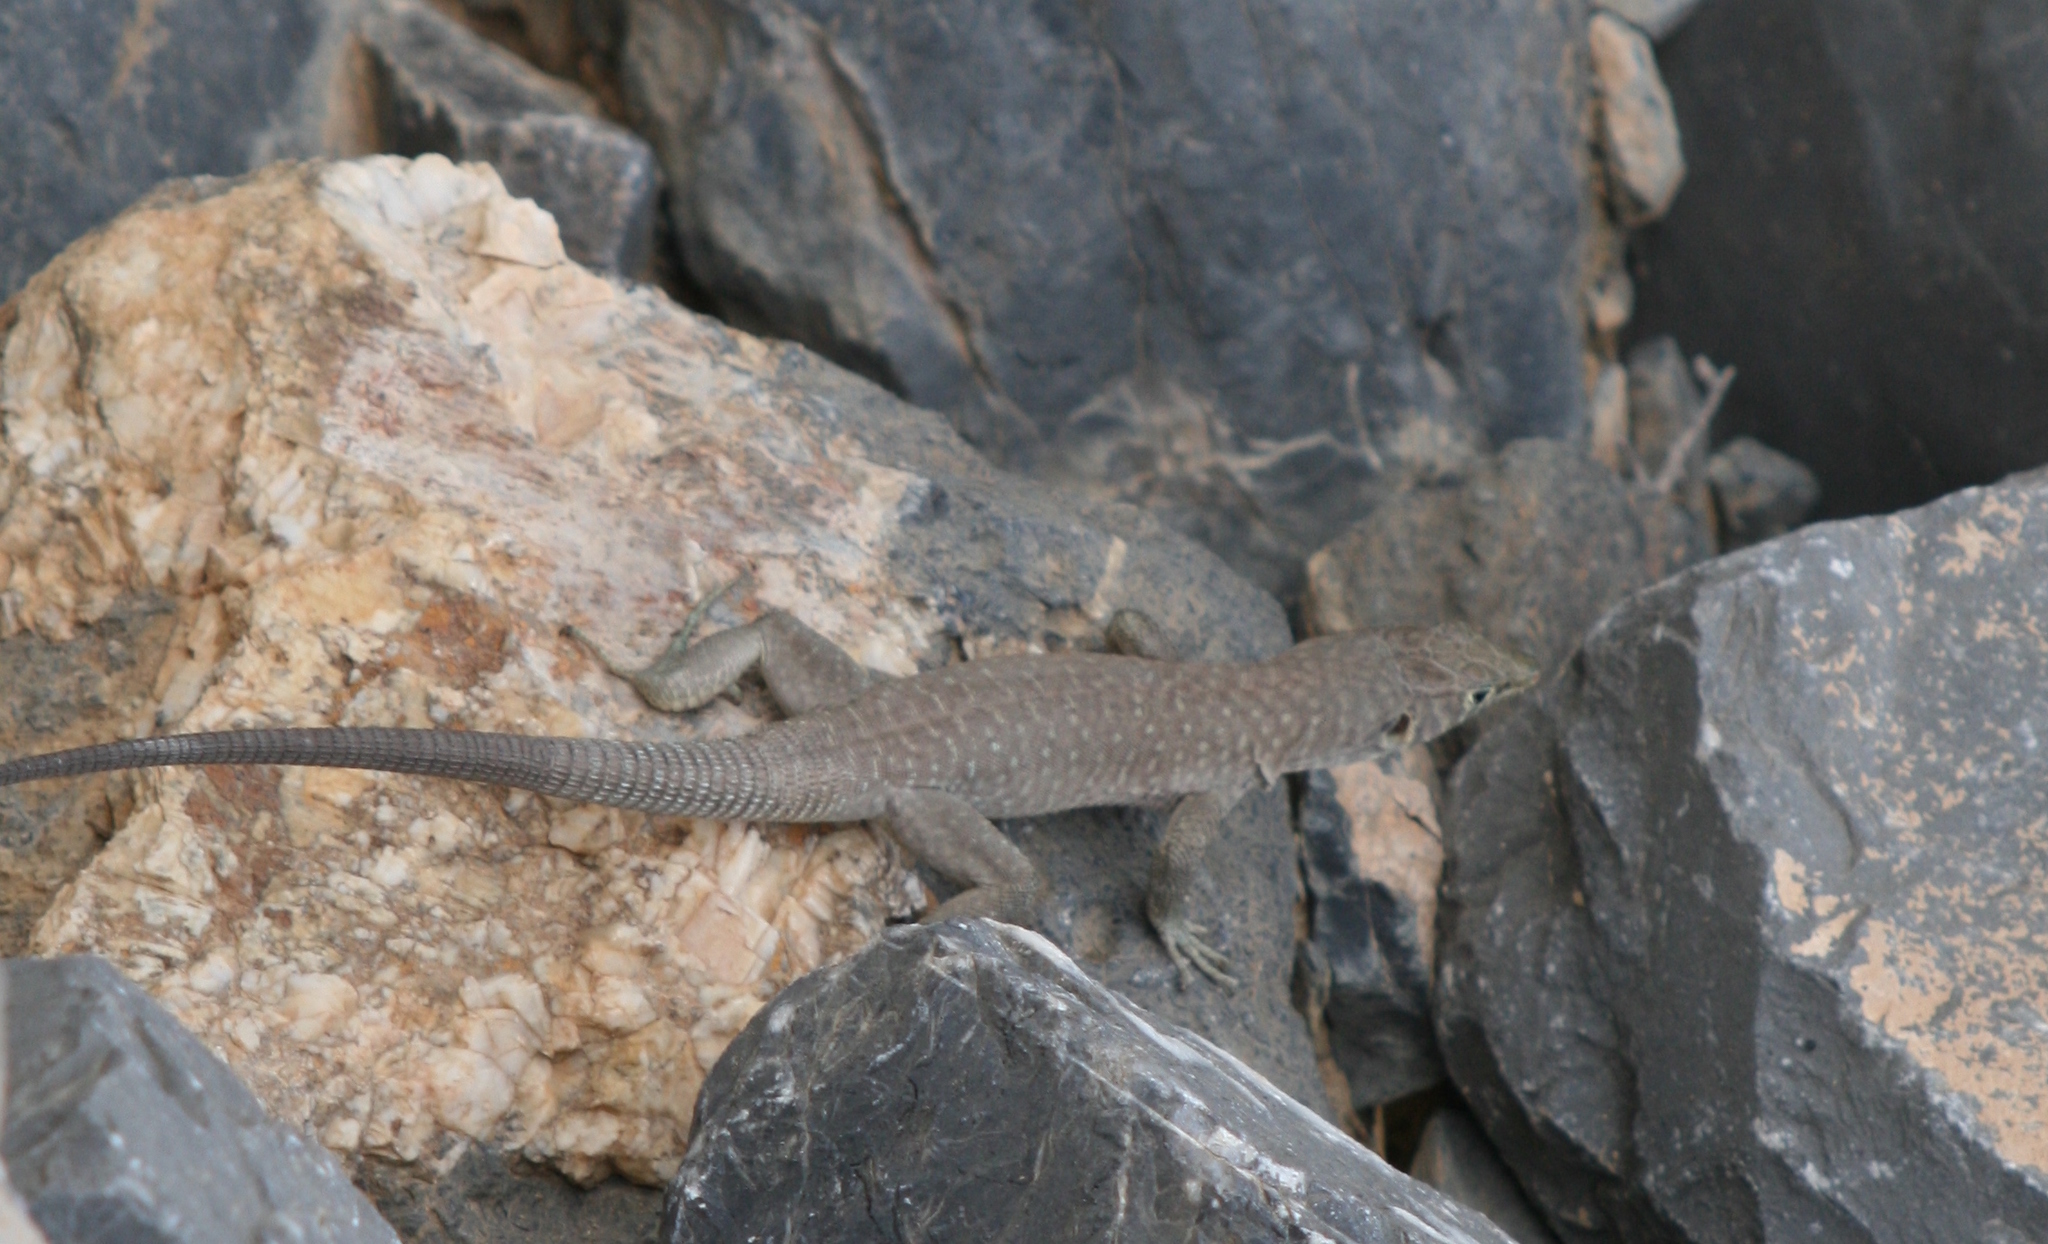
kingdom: Animalia
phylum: Chordata
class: Squamata
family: Lacertidae
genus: Omanosaura
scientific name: Omanosaura jayakari
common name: Jayakar lizard
